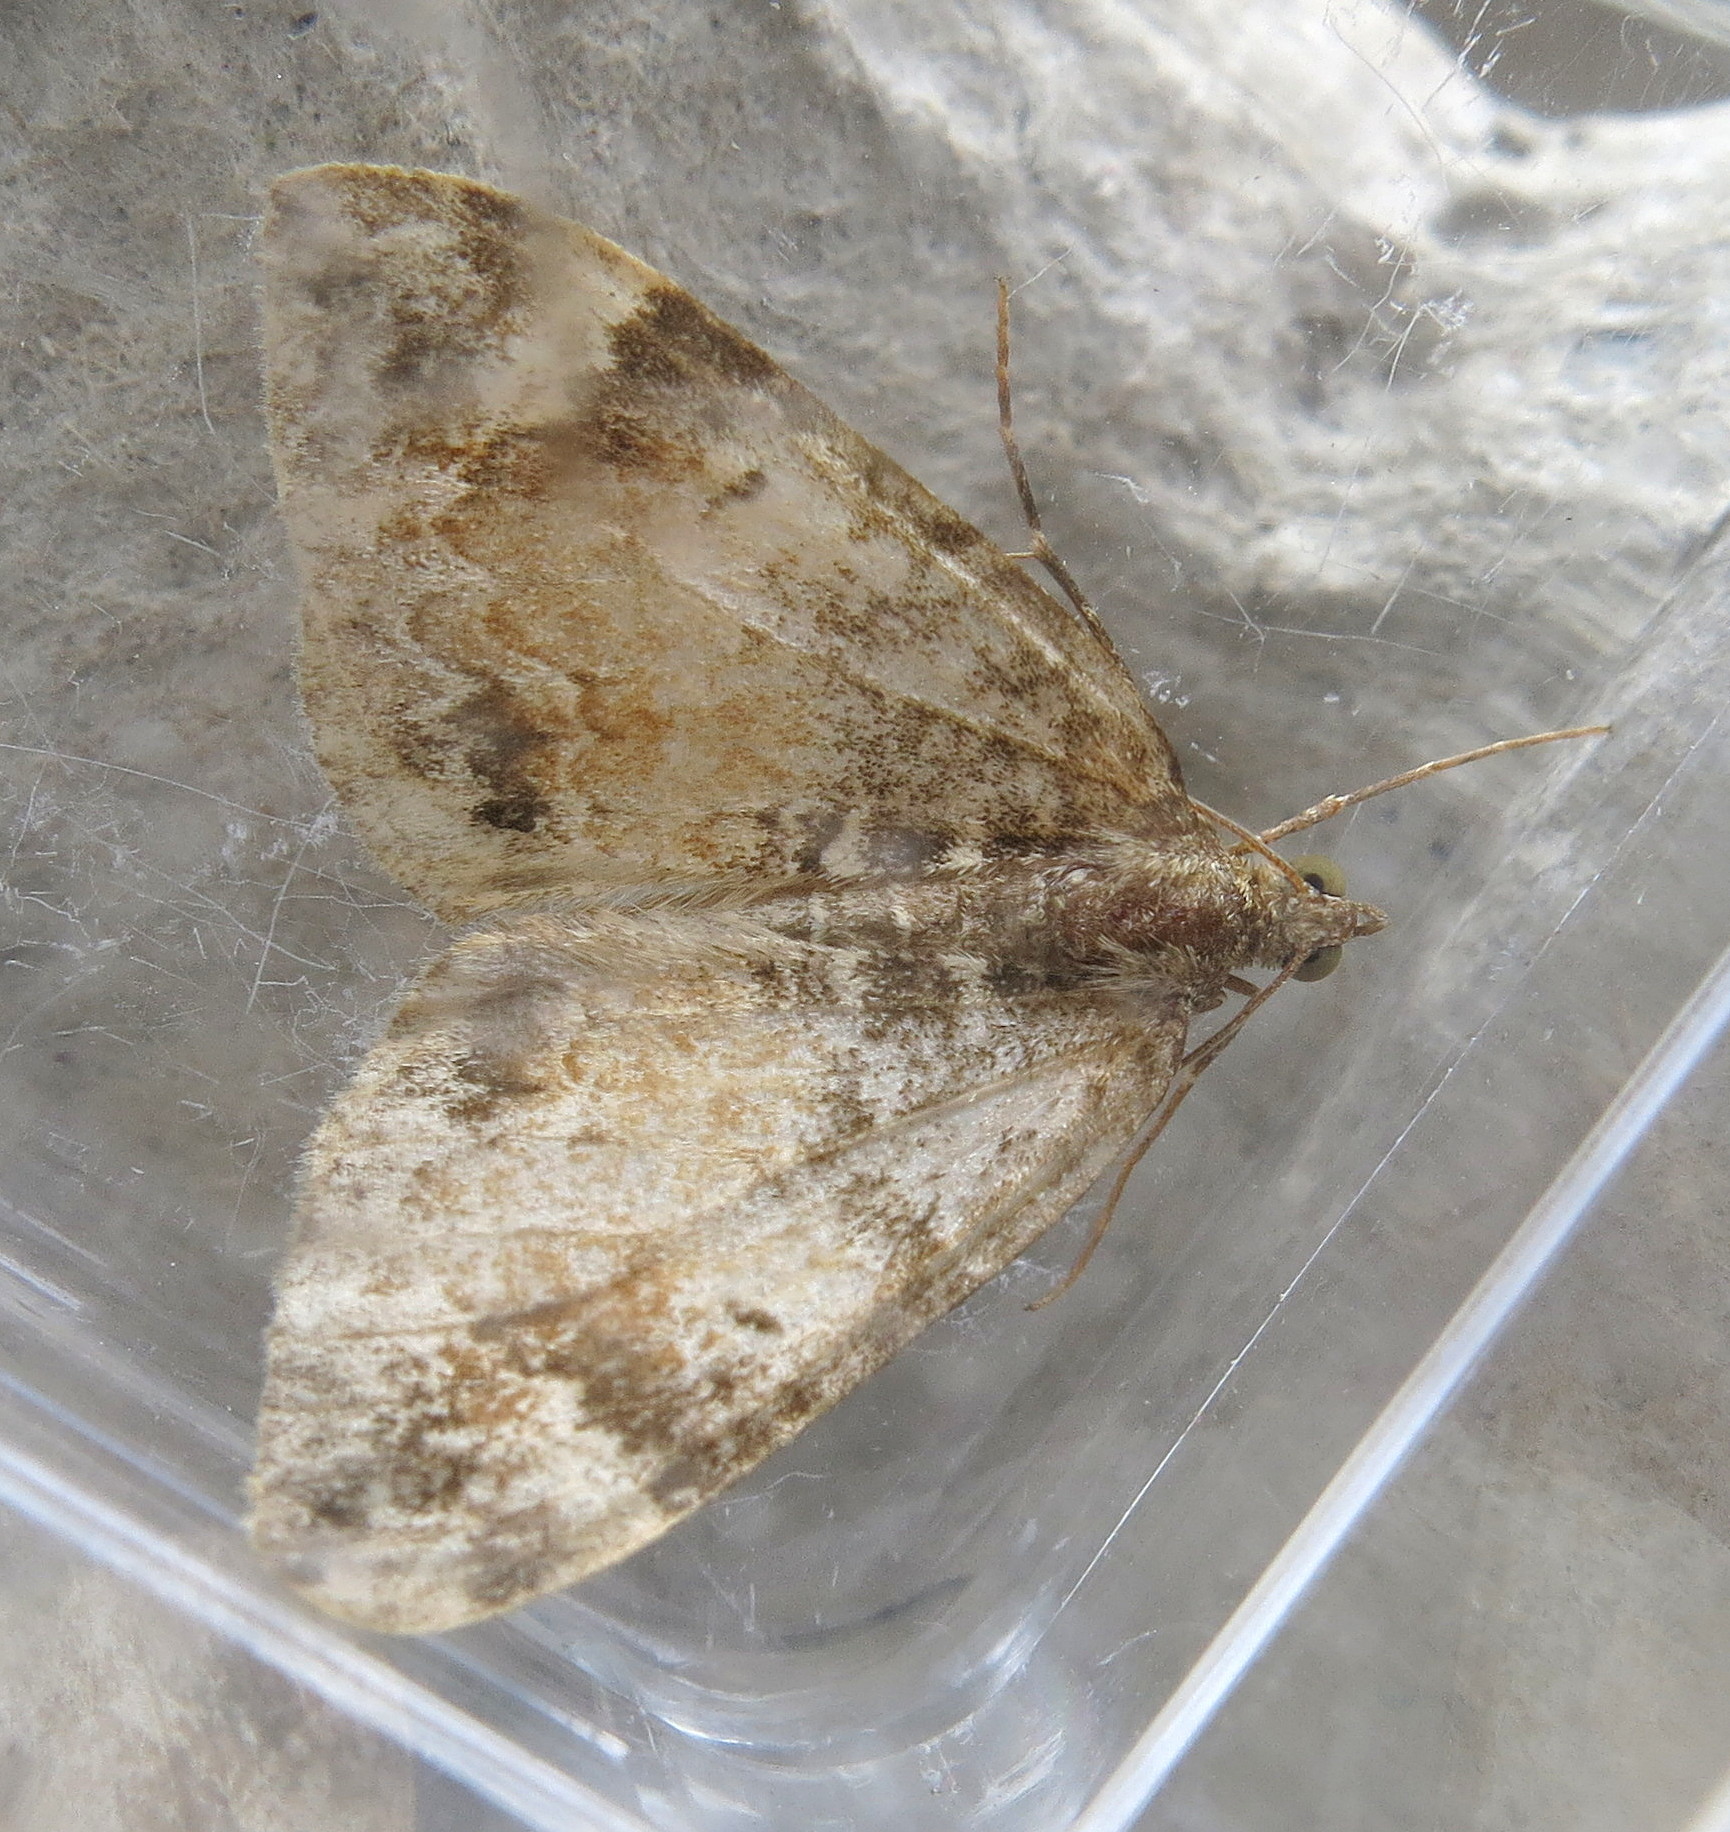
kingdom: Animalia
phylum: Arthropoda
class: Insecta
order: Lepidoptera
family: Geometridae
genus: Dysstroma
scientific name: Dysstroma truncata
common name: Common marbled carpet
